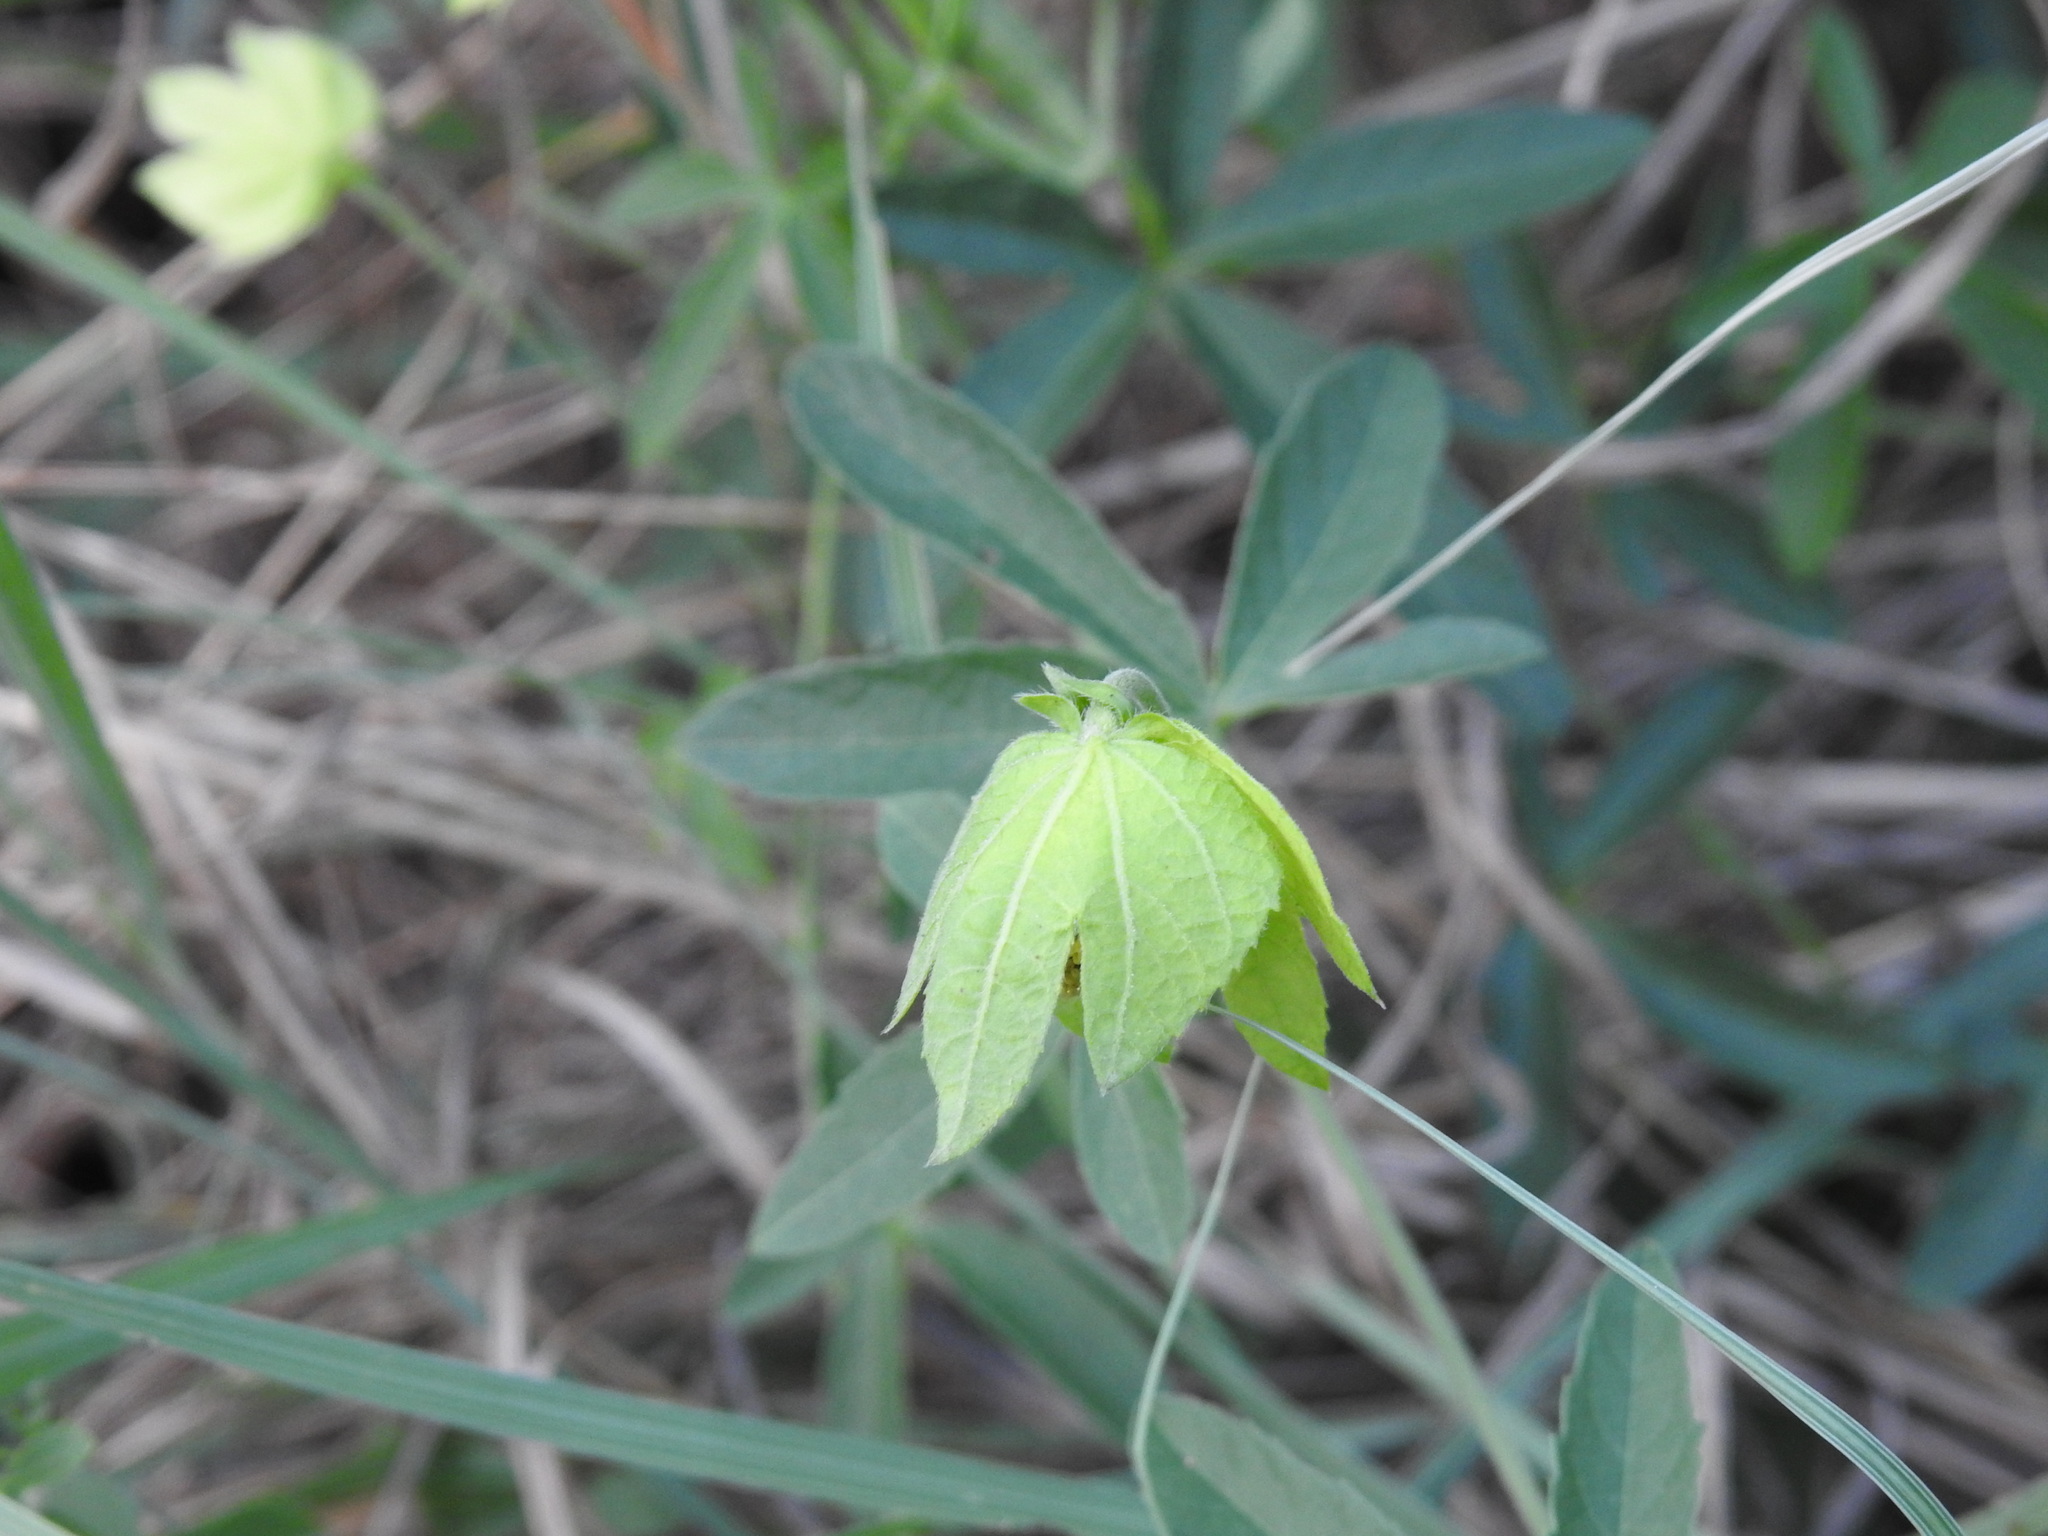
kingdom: Plantae
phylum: Tracheophyta
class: Magnoliopsida
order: Malpighiales
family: Euphorbiaceae
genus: Dalechampia
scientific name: Dalechampia capensis
